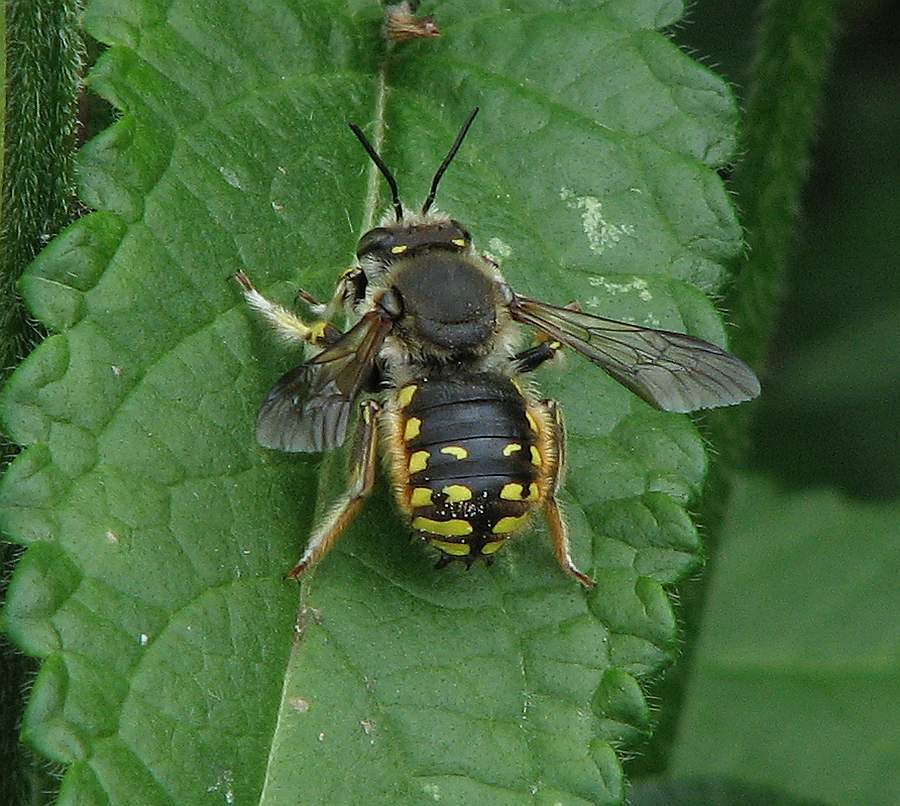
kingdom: Animalia
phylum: Arthropoda
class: Insecta
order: Hymenoptera
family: Megachilidae
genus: Anthidium
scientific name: Anthidium manicatum
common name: Wool carder bee
